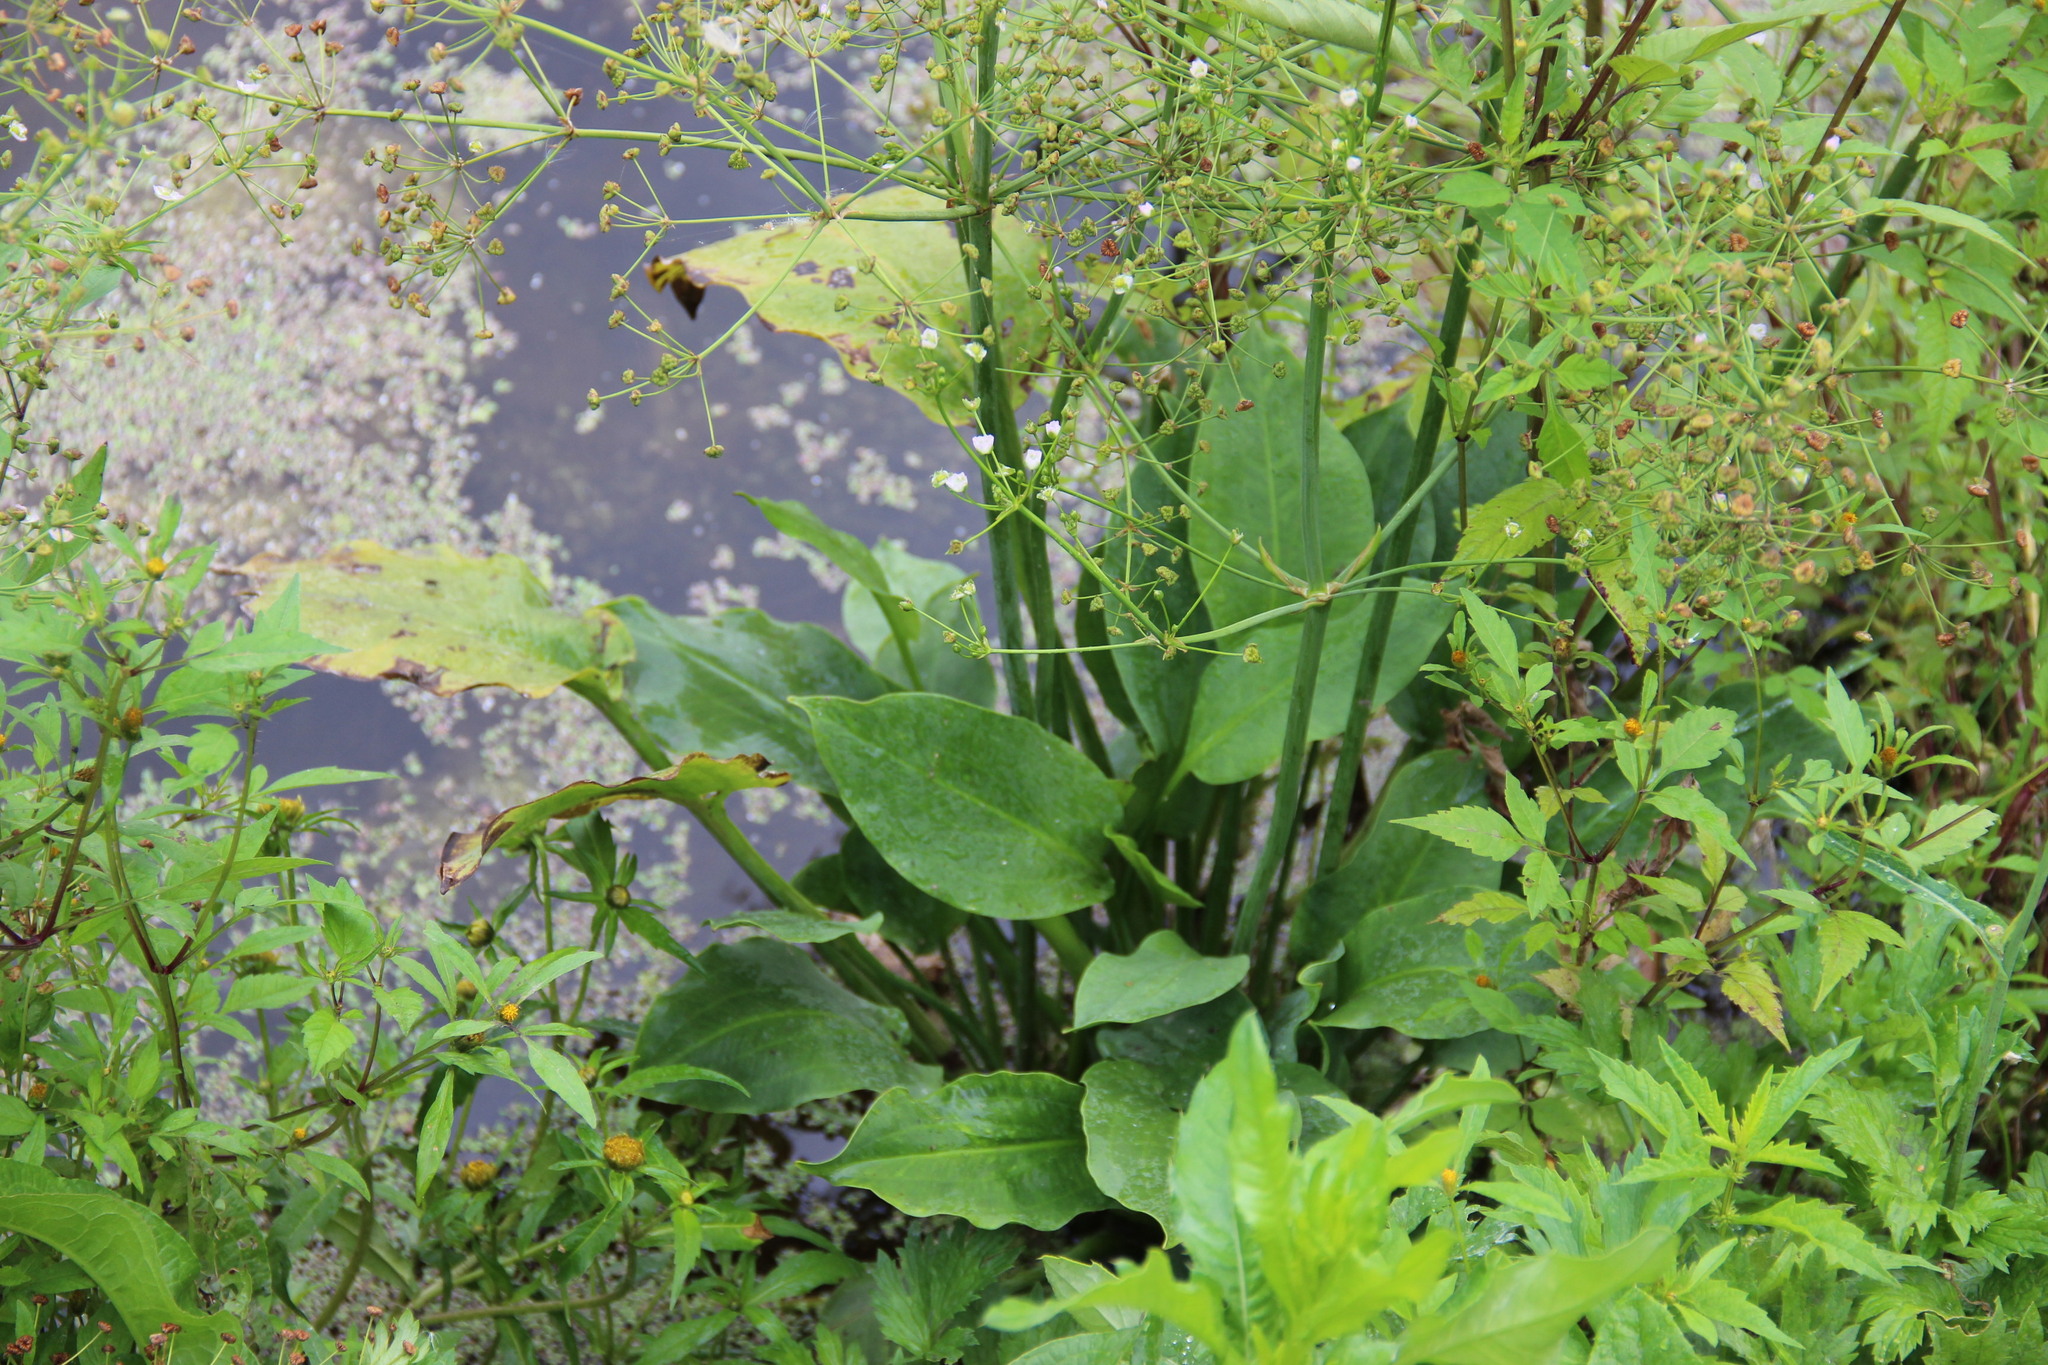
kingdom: Plantae
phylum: Tracheophyta
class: Liliopsida
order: Alismatales
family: Alismataceae
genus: Alisma
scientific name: Alisma plantago-aquatica
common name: Water-plantain
